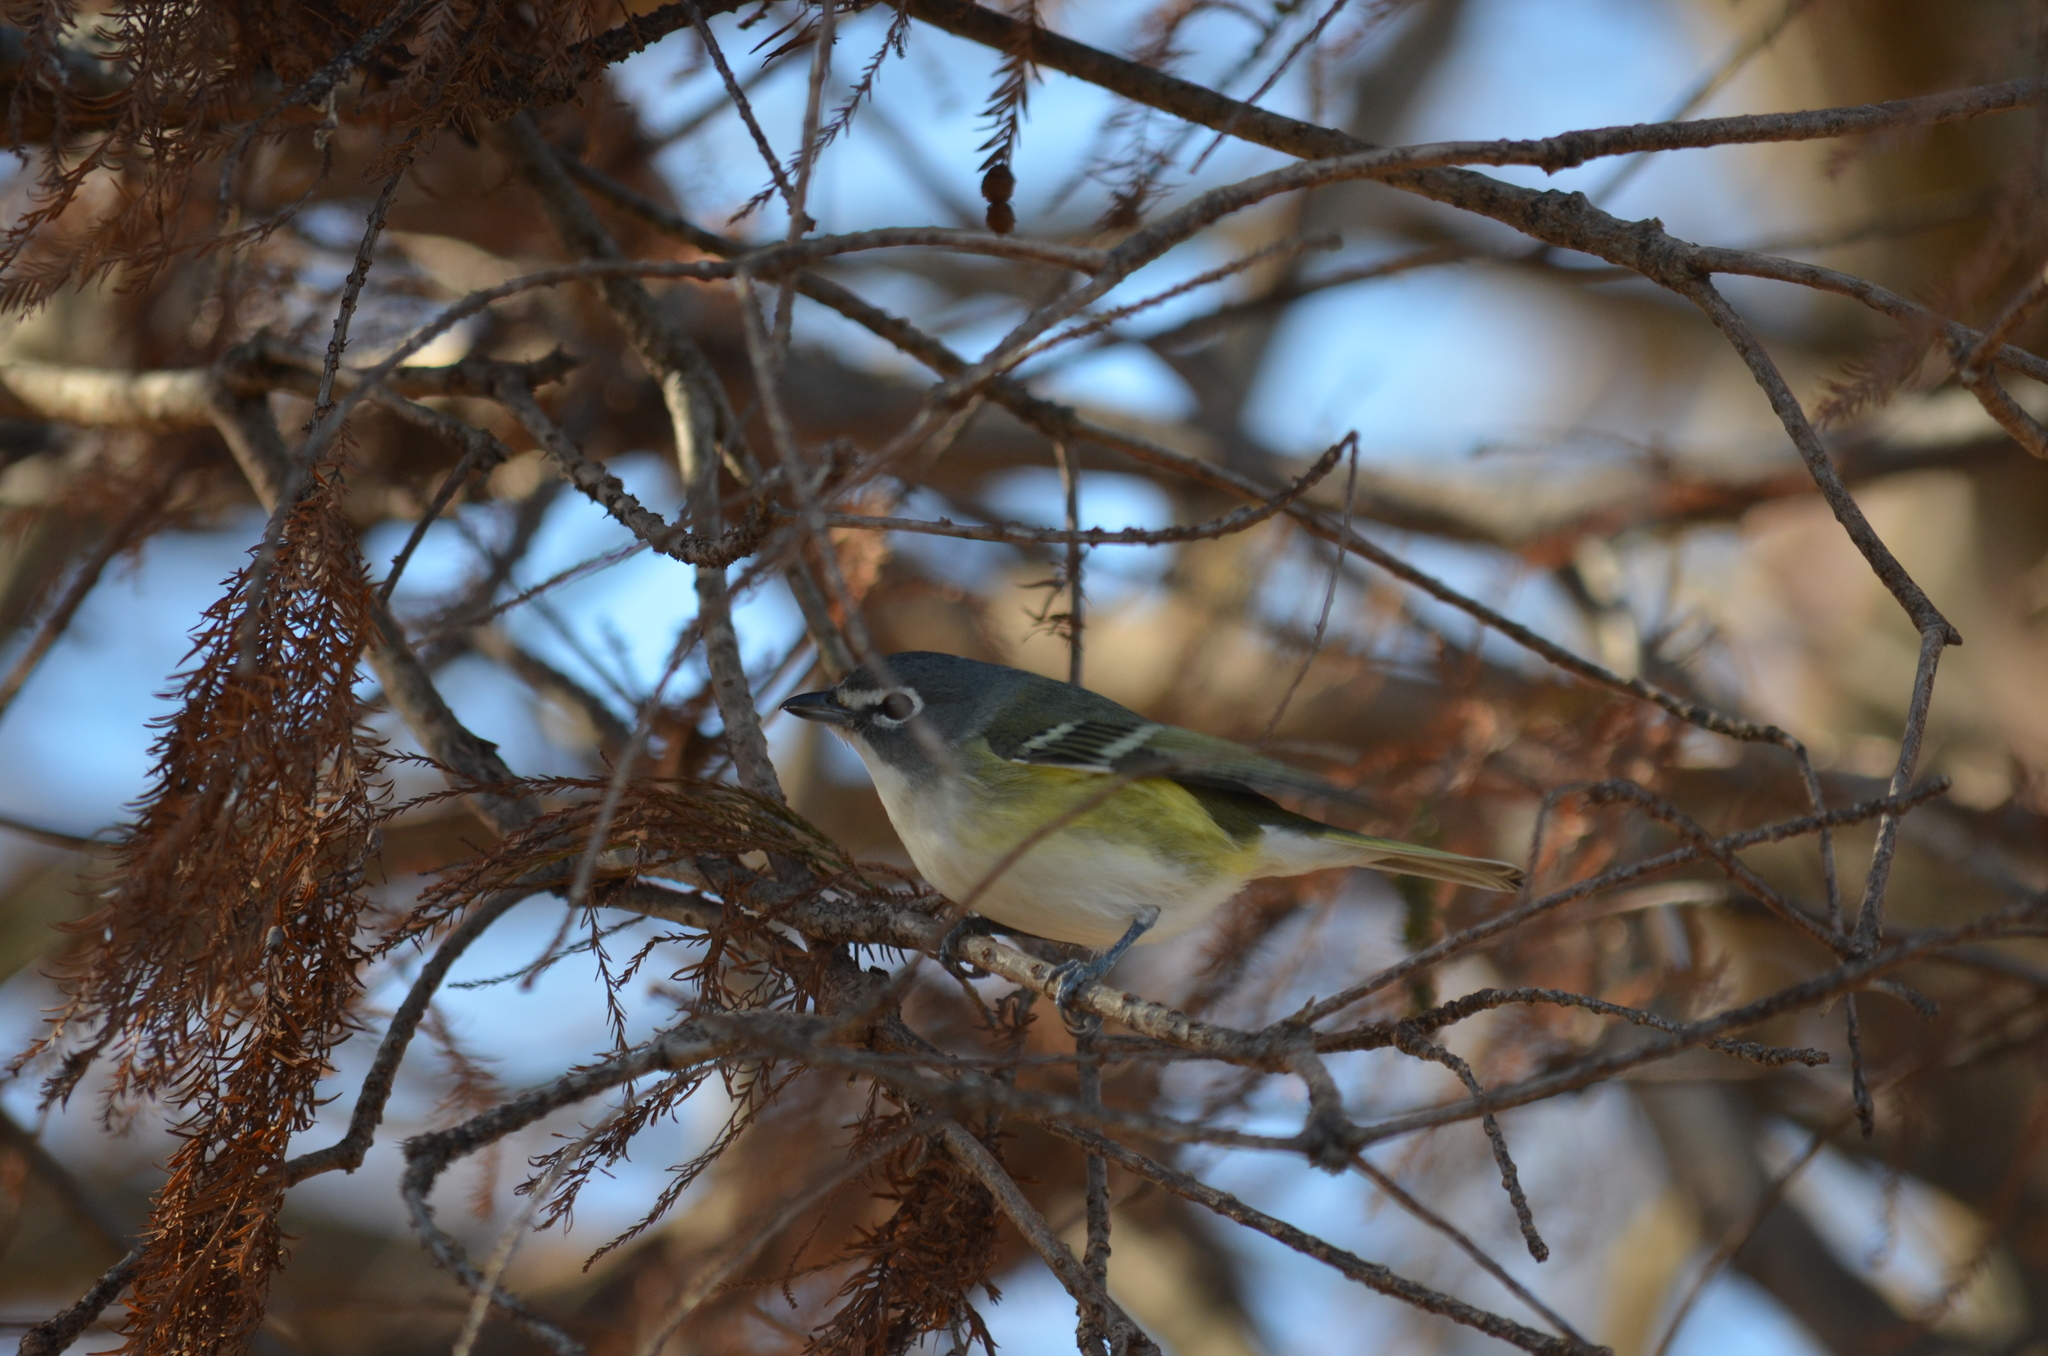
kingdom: Animalia
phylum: Chordata
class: Aves
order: Passeriformes
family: Vireonidae
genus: Vireo
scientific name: Vireo solitarius
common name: Blue-headed vireo
